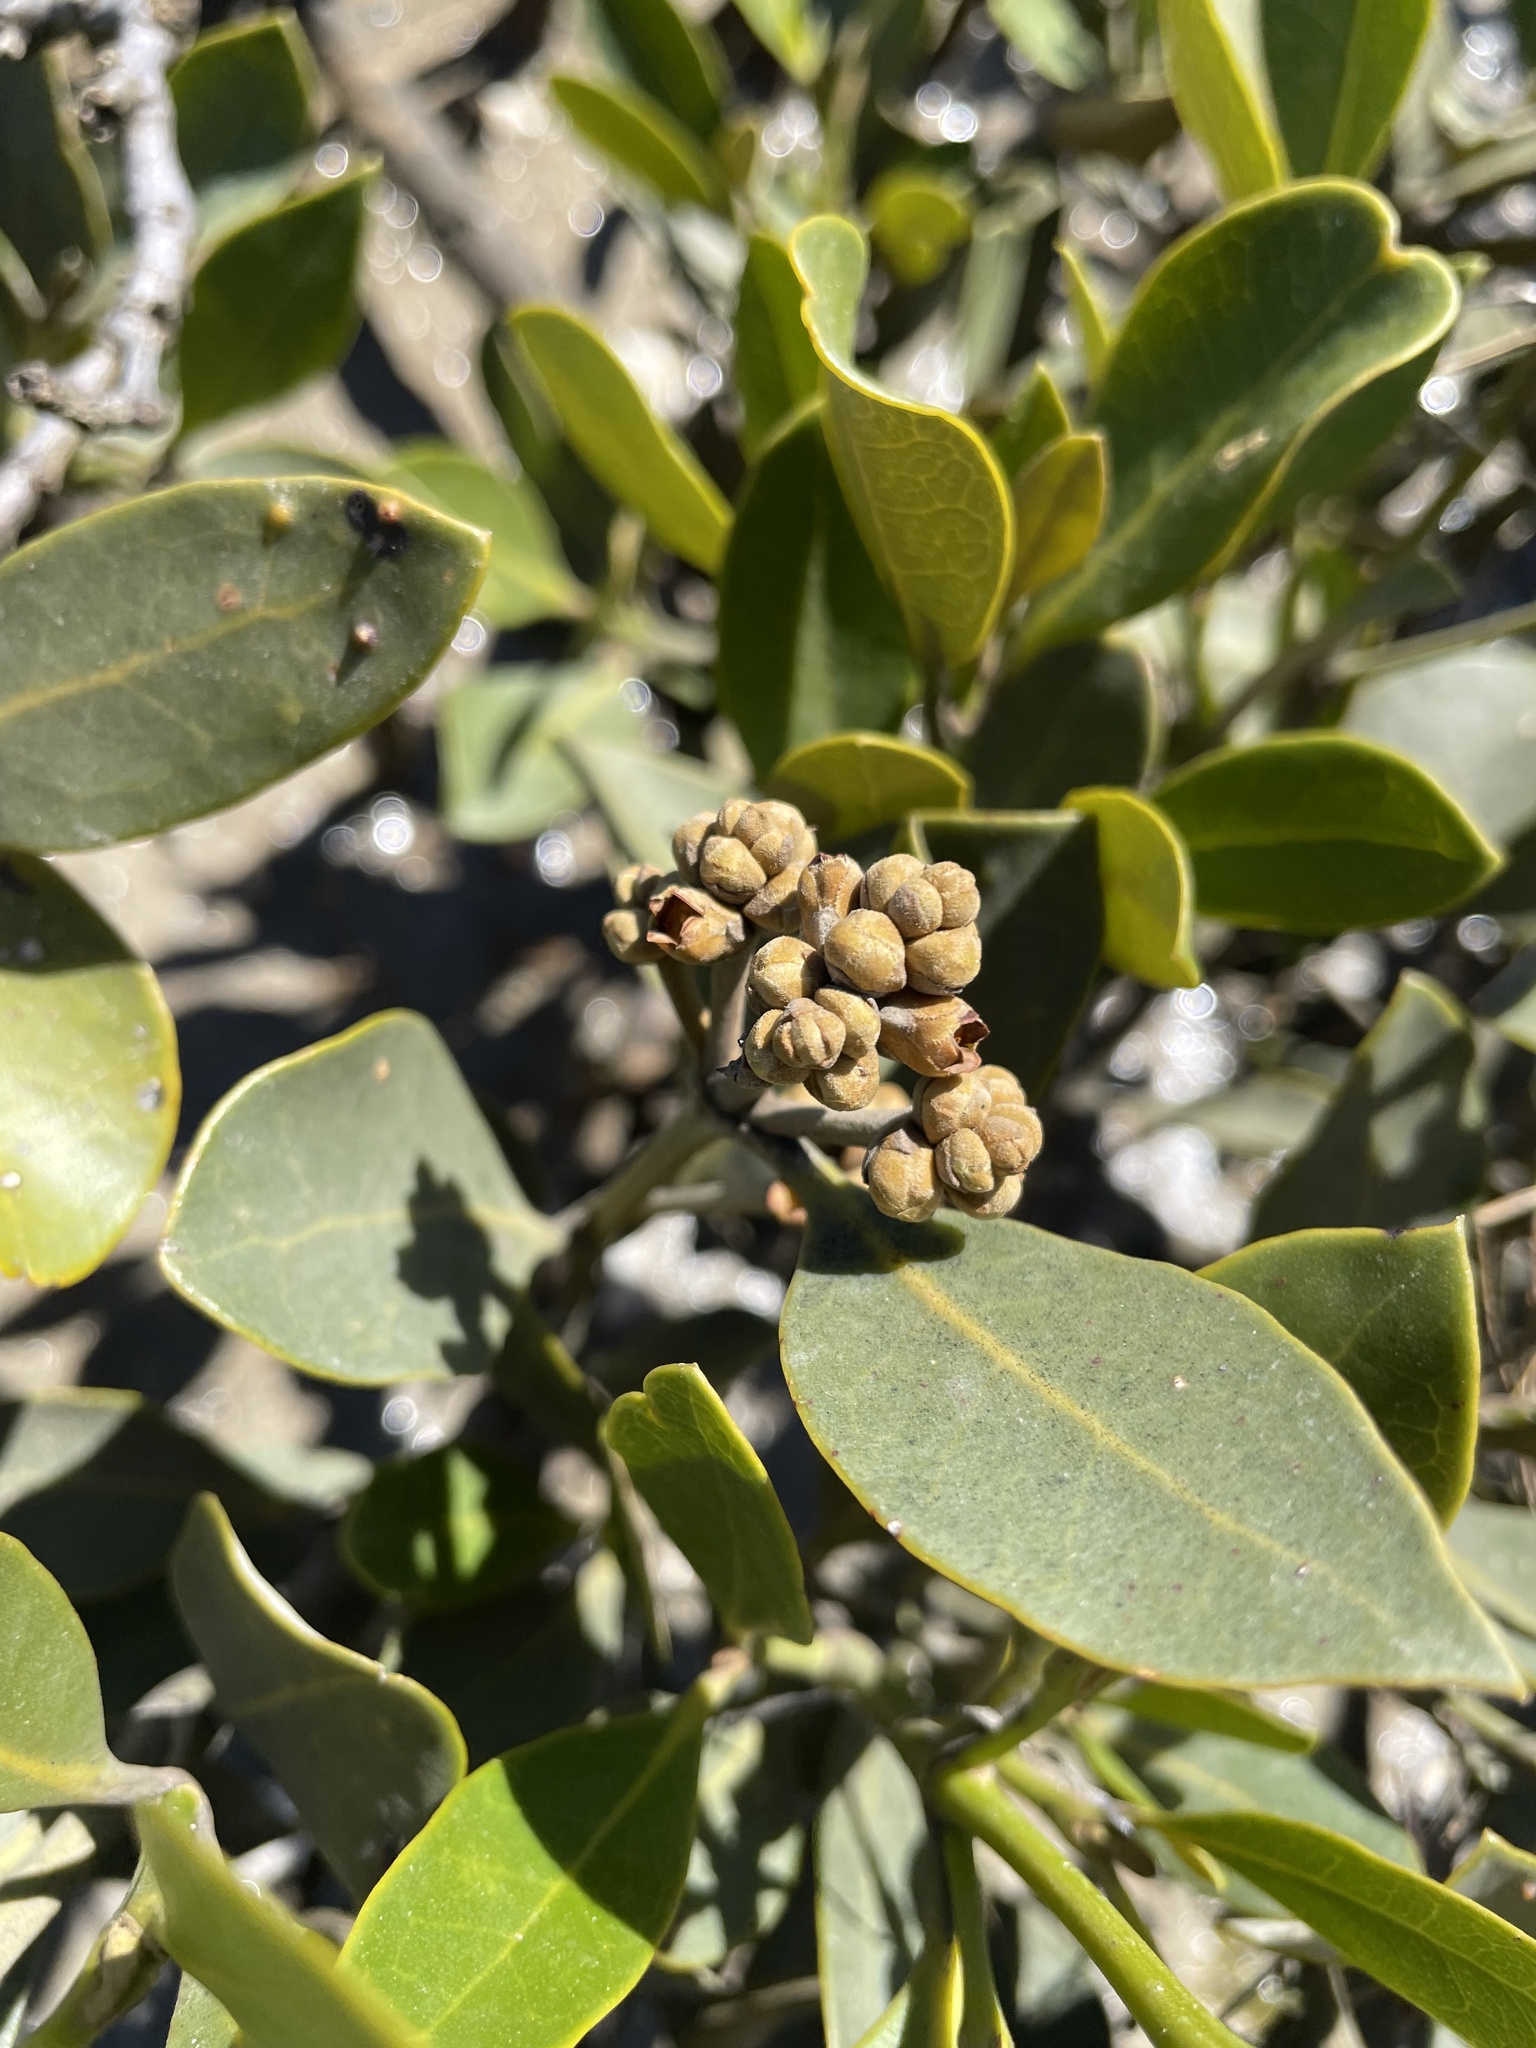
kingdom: Plantae
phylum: Tracheophyta
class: Magnoliopsida
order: Lamiales
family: Acanthaceae
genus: Avicennia
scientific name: Avicennia marina
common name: Gray mangrove
